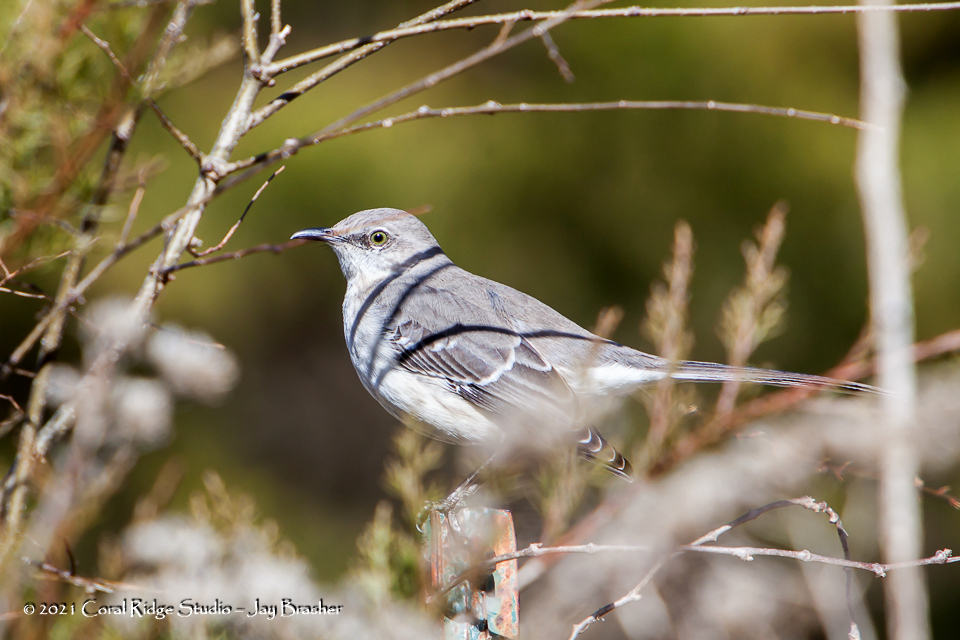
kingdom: Animalia
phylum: Chordata
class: Aves
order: Passeriformes
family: Mimidae
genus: Mimus
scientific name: Mimus polyglottos
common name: Northern mockingbird
